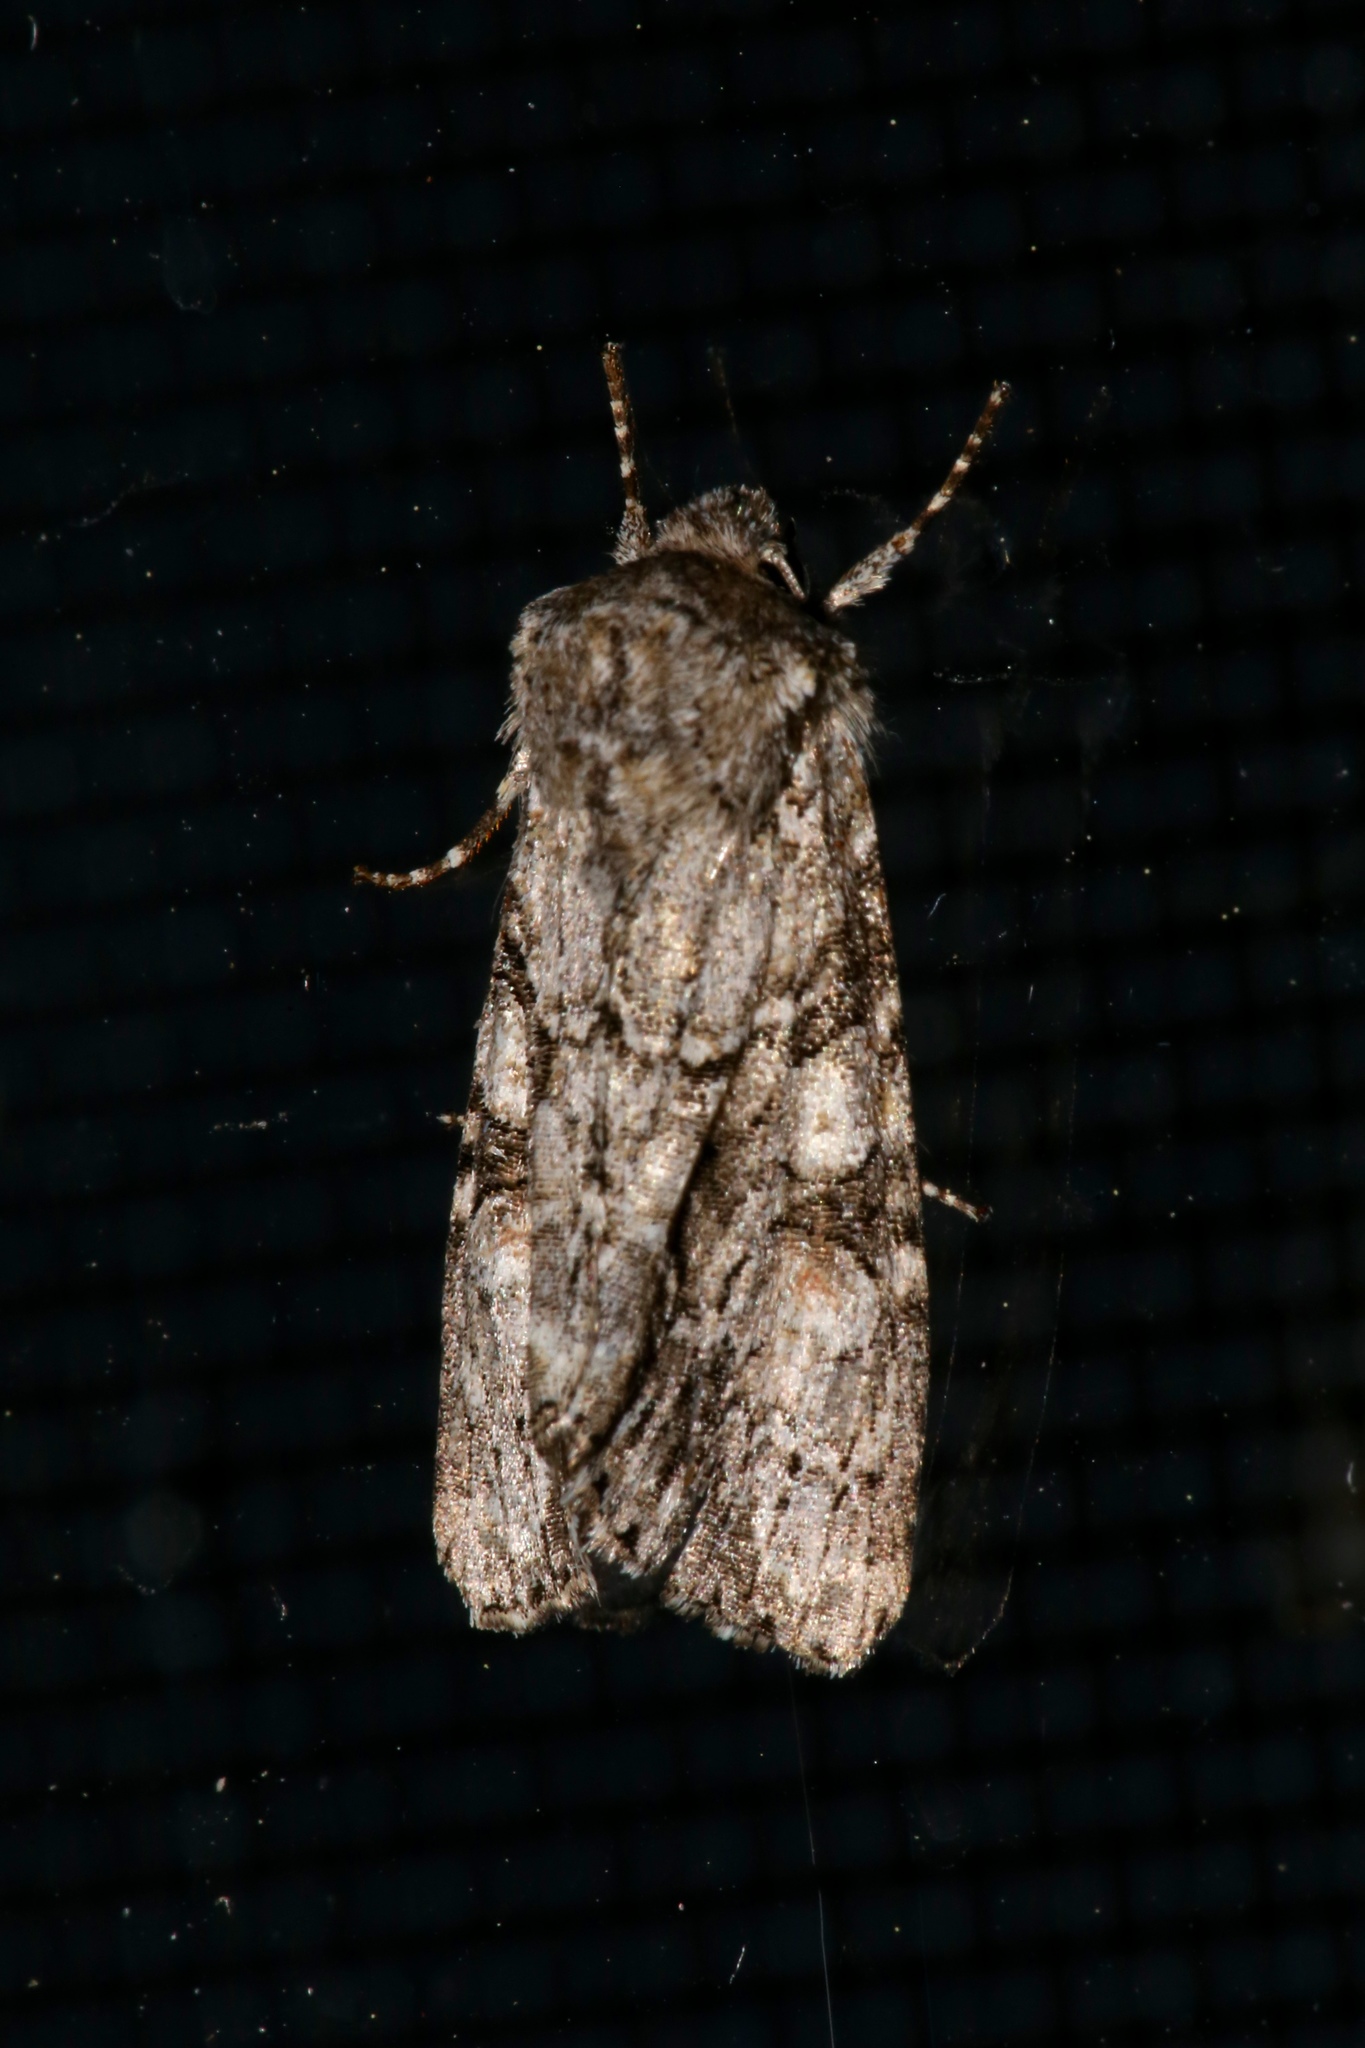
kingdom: Animalia
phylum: Arthropoda
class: Insecta
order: Lepidoptera
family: Noctuidae
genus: Achatia
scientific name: Achatia distincta
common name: Distinct quaker
